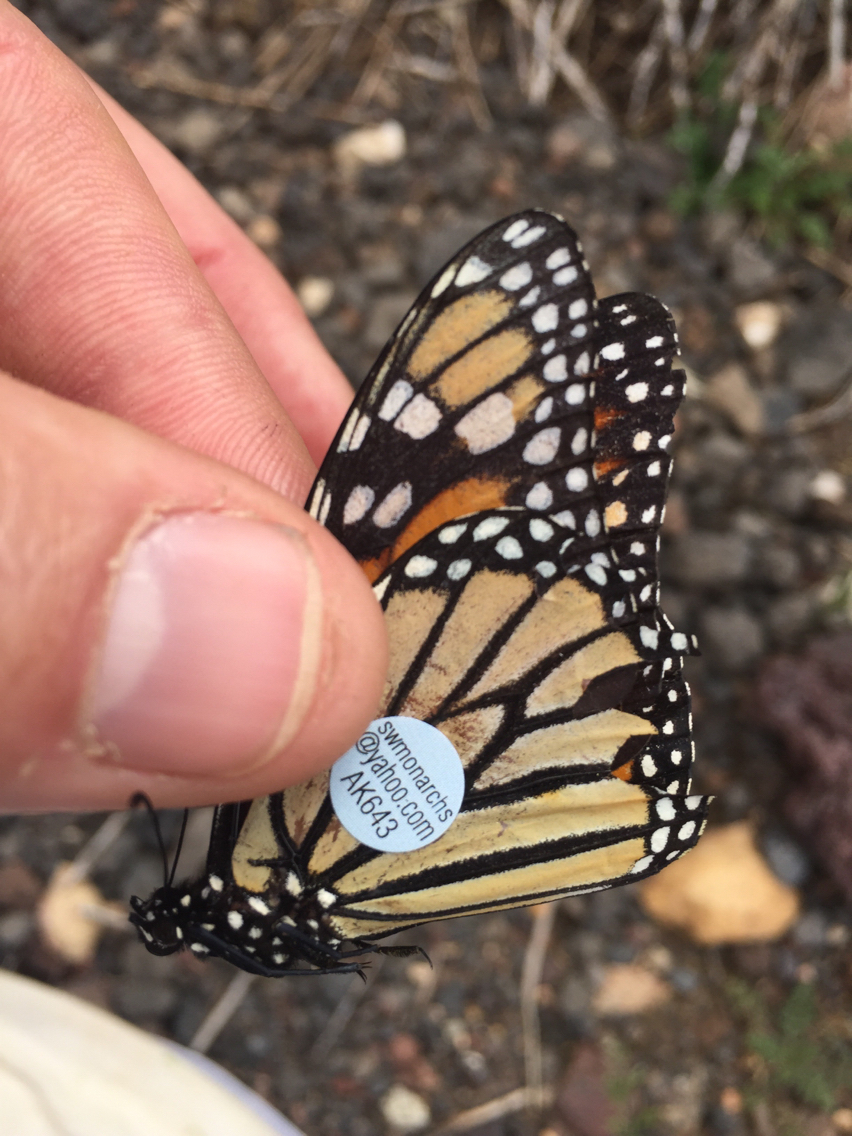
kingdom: Animalia
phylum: Arthropoda
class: Insecta
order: Lepidoptera
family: Nymphalidae
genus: Danaus
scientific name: Danaus plexippus
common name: Monarch
